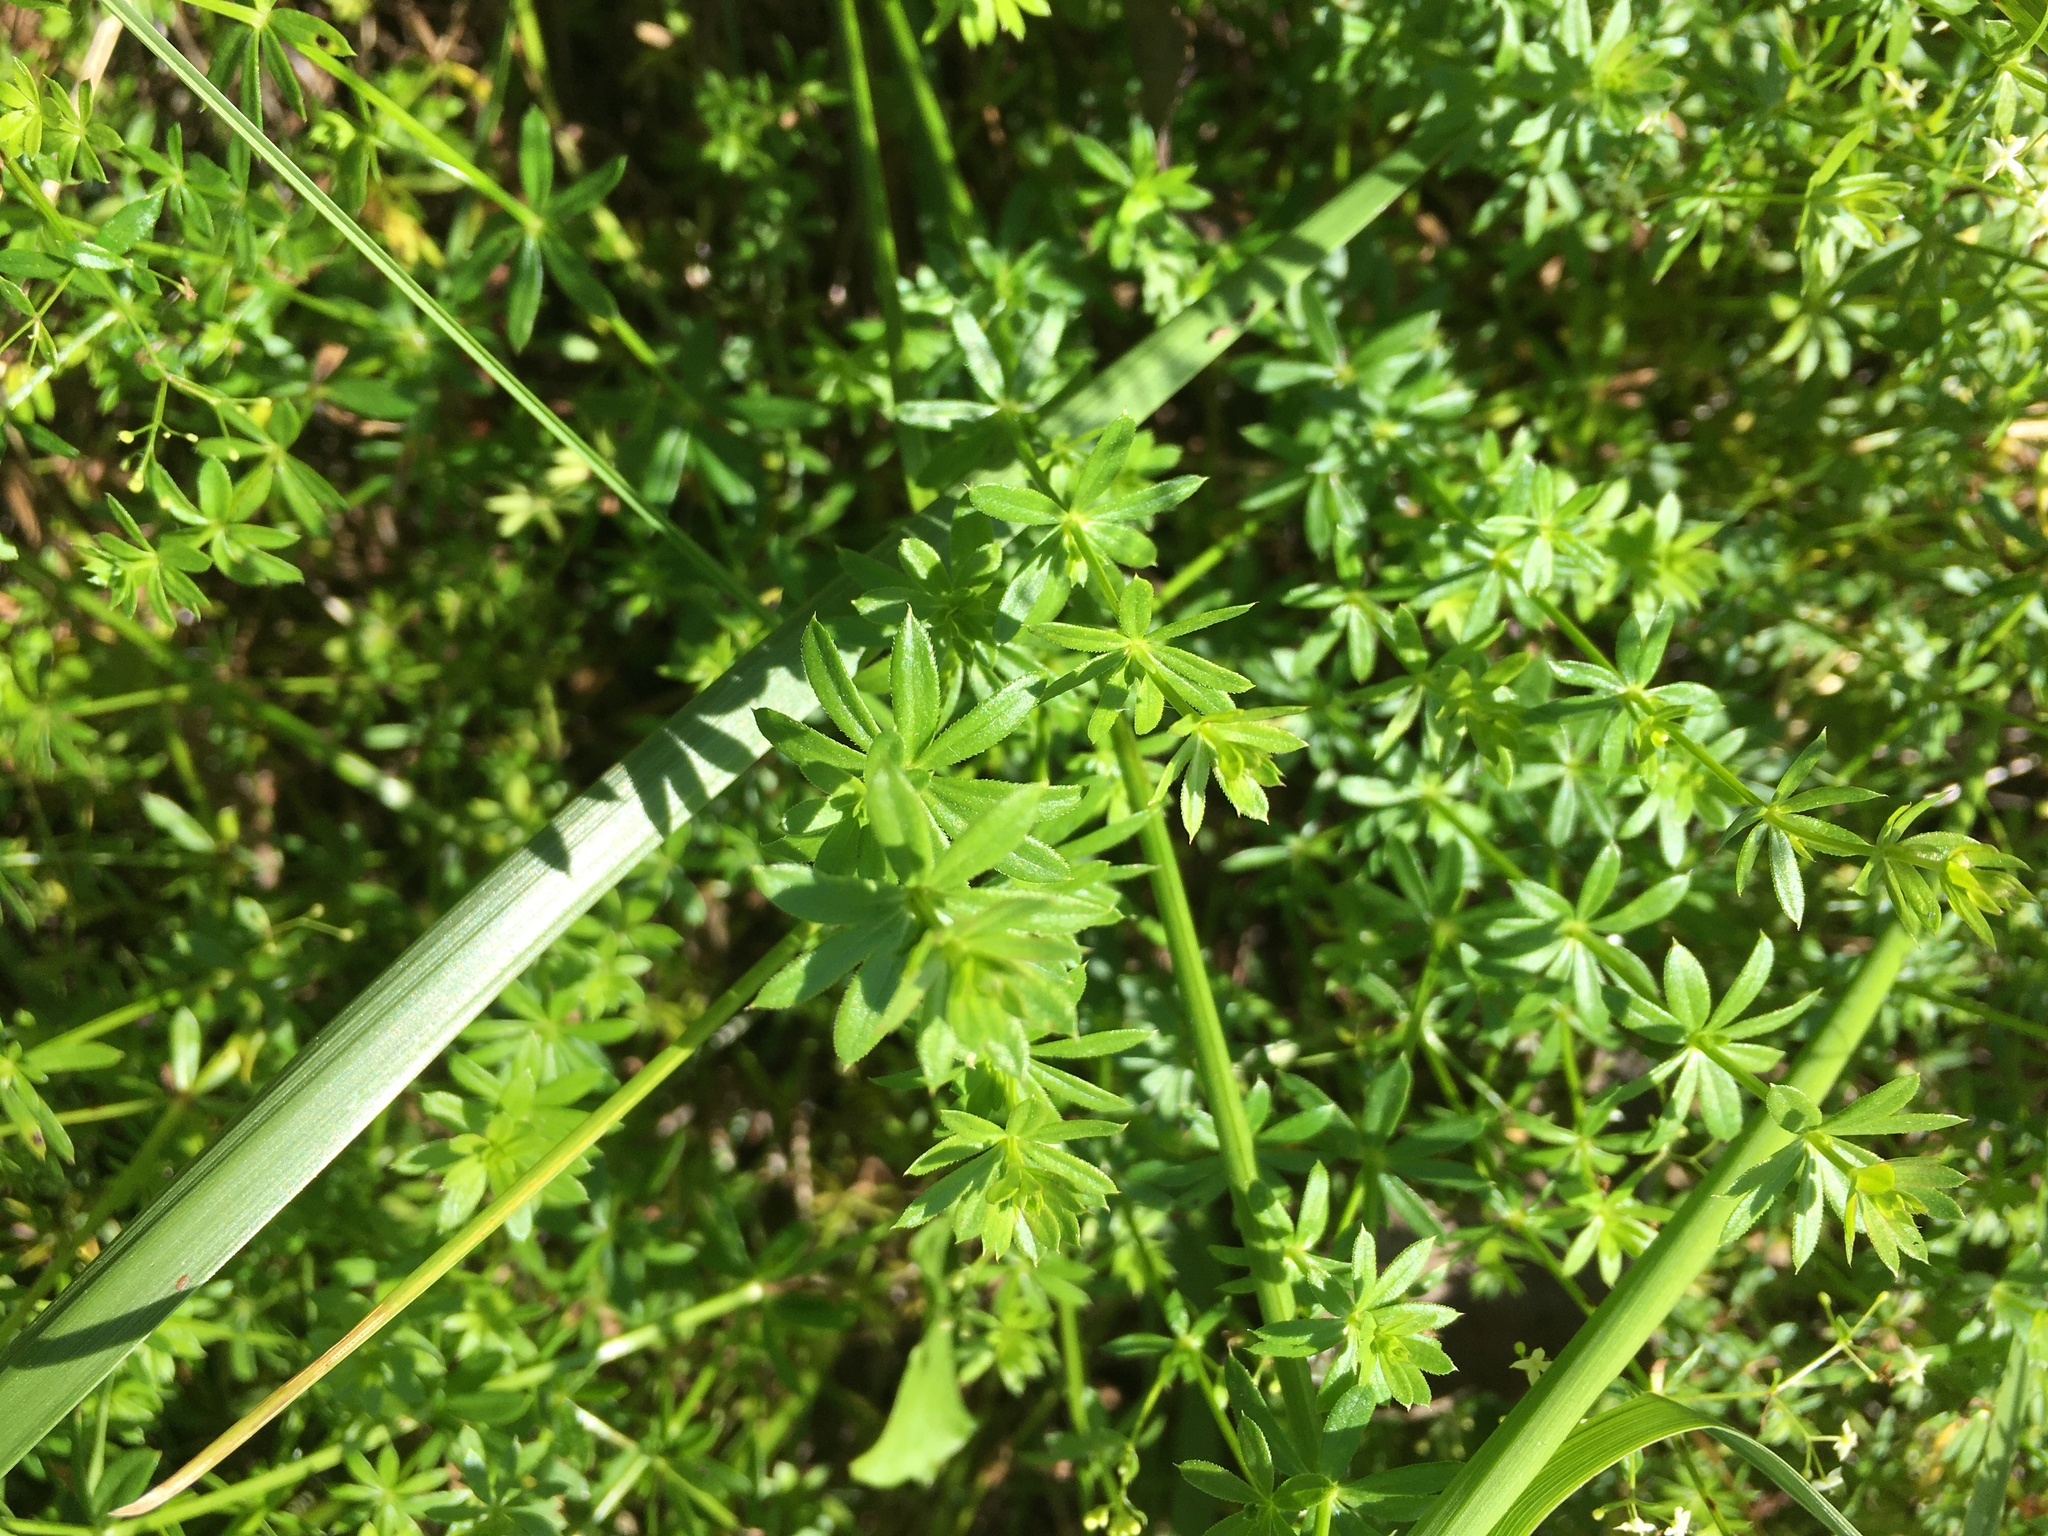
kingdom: Plantae
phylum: Tracheophyta
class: Magnoliopsida
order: Gentianales
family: Rubiaceae
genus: Galium
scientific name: Galium mollugo
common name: Hedge bedstraw
